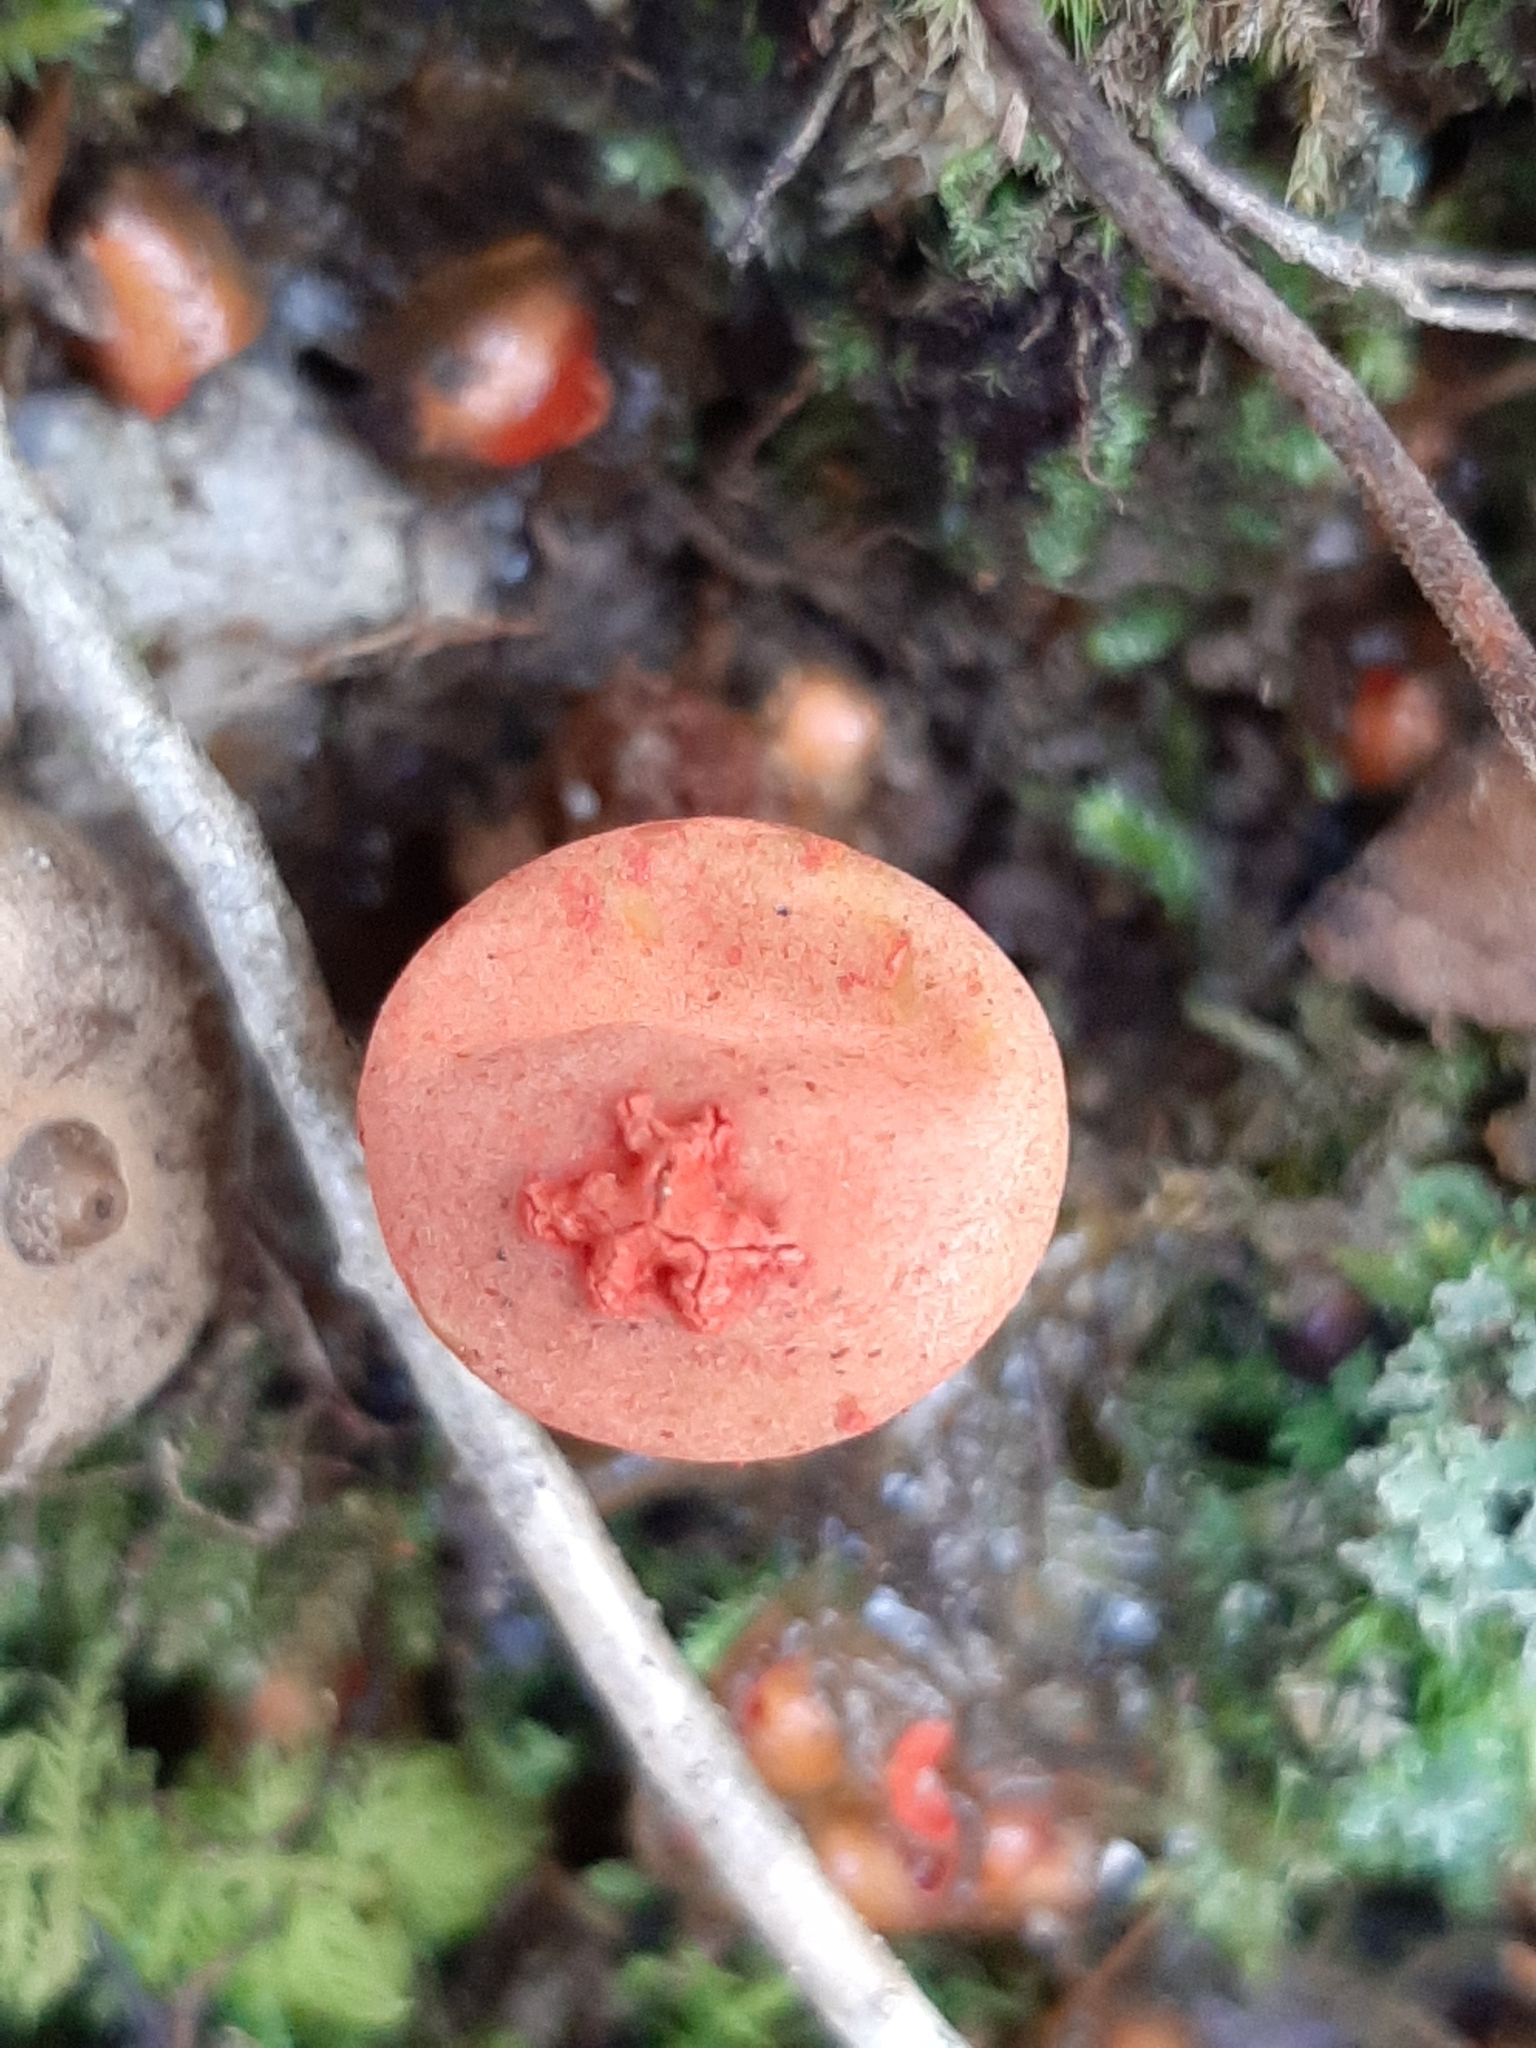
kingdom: Fungi
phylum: Basidiomycota
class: Agaricomycetes
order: Boletales
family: Calostomataceae
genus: Calostoma
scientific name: Calostoma cinnabarinum
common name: Stalked puffball-in-aspic
